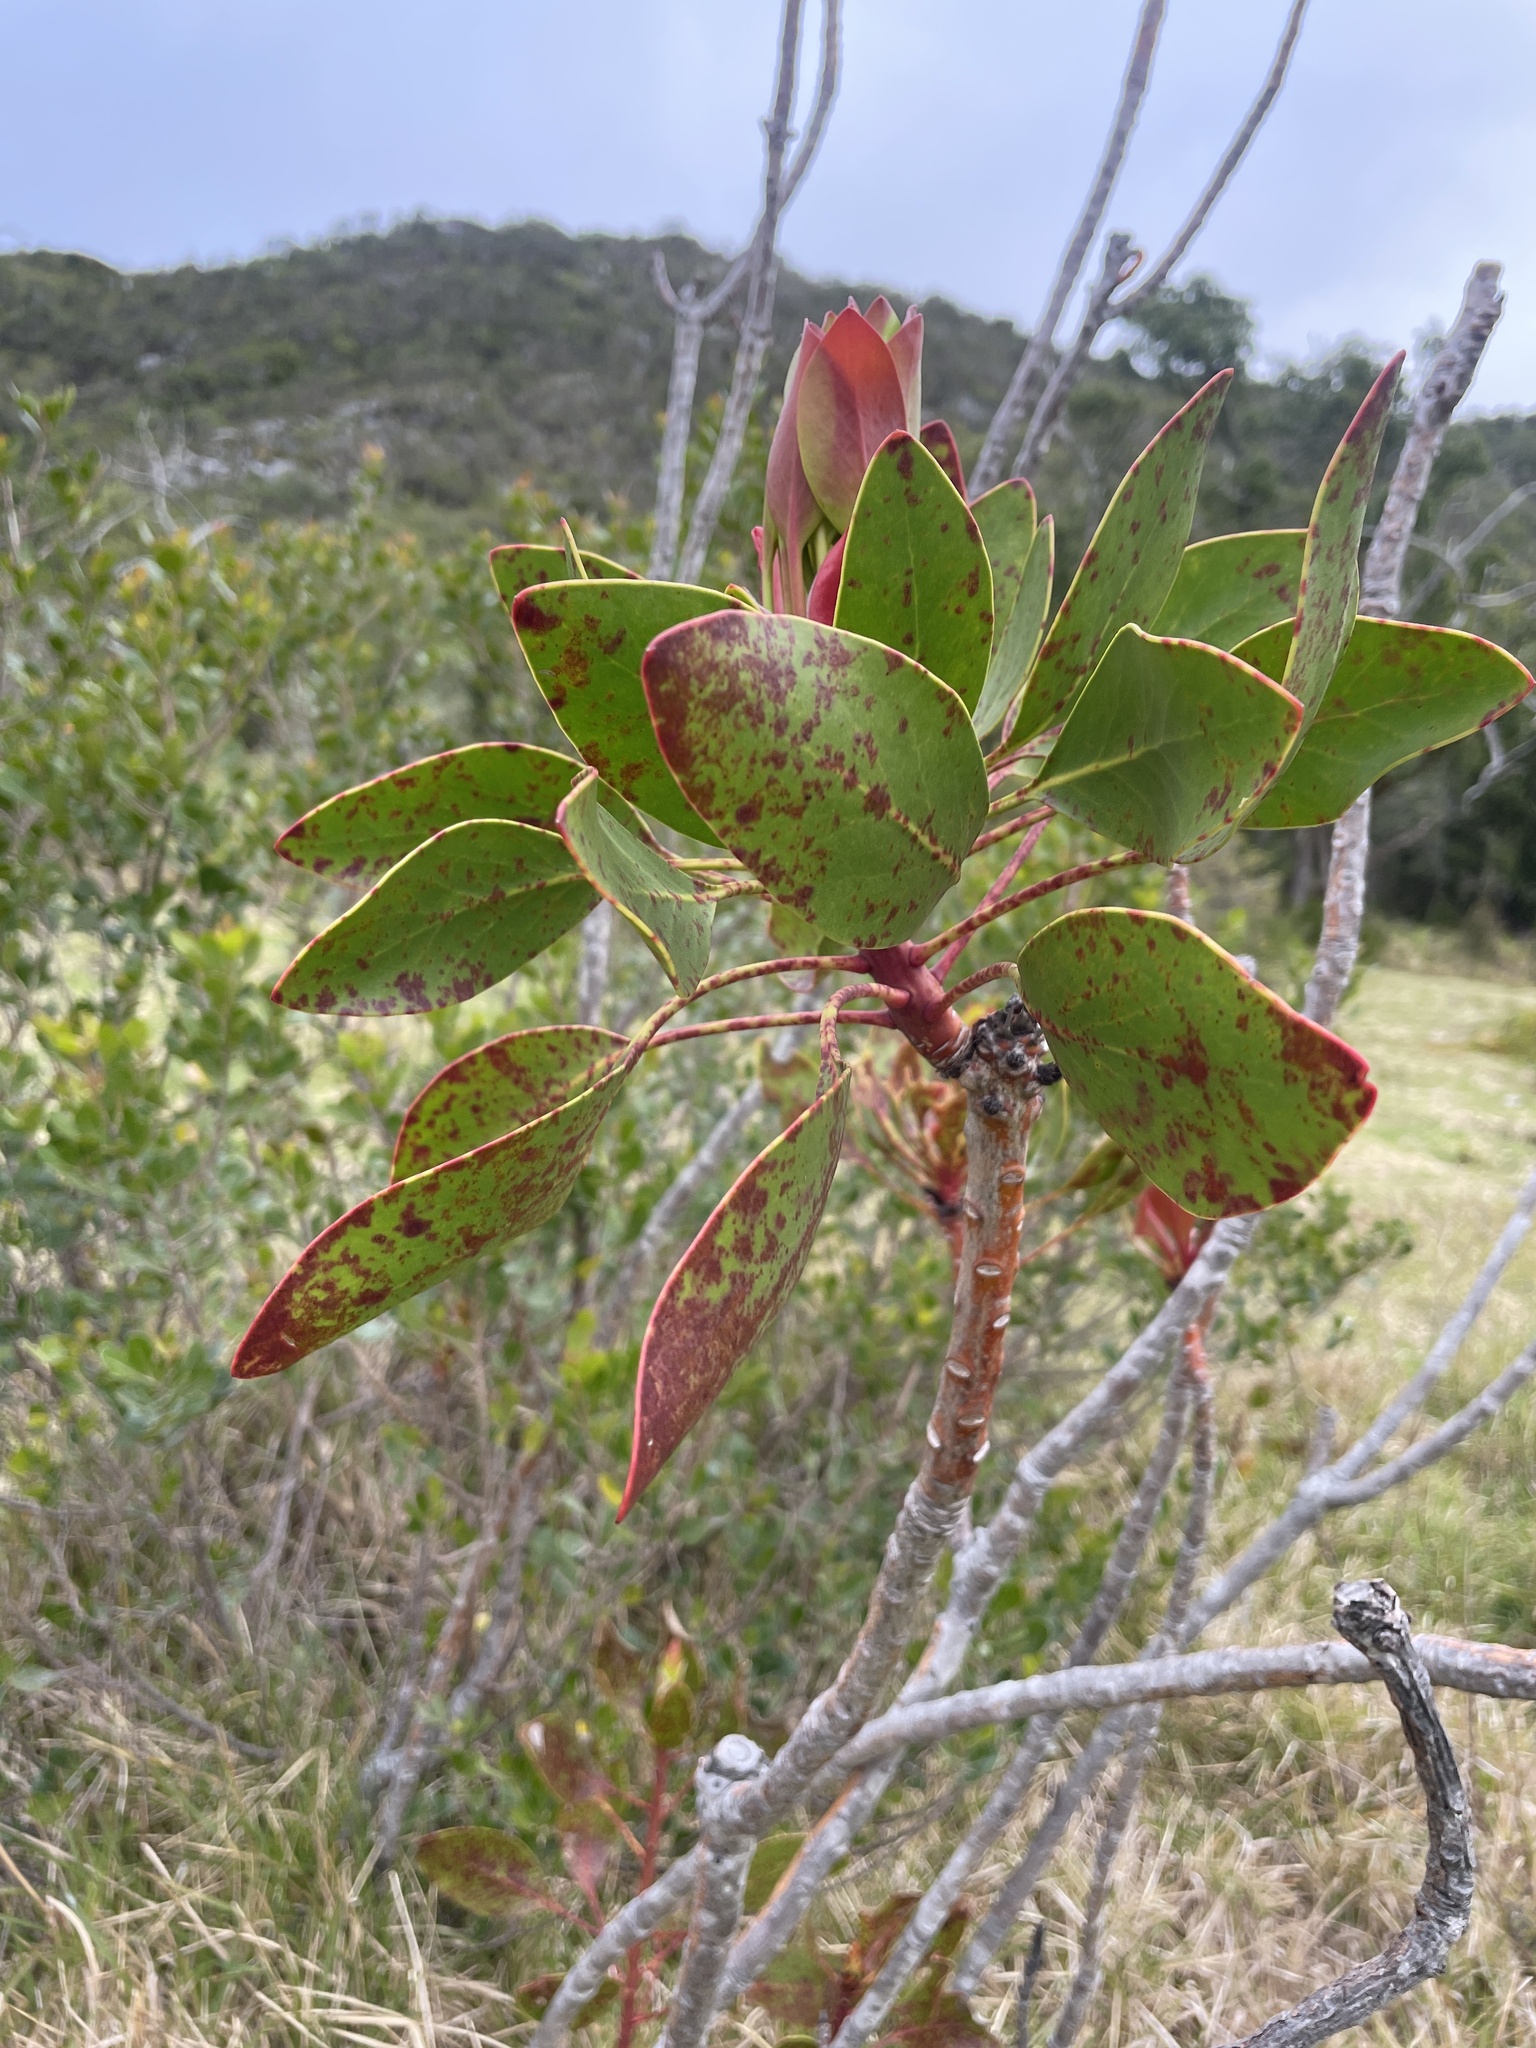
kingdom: Plantae
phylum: Tracheophyta
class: Magnoliopsida
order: Proteales
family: Proteaceae
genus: Protea
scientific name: Protea cynaroides
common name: King protea
